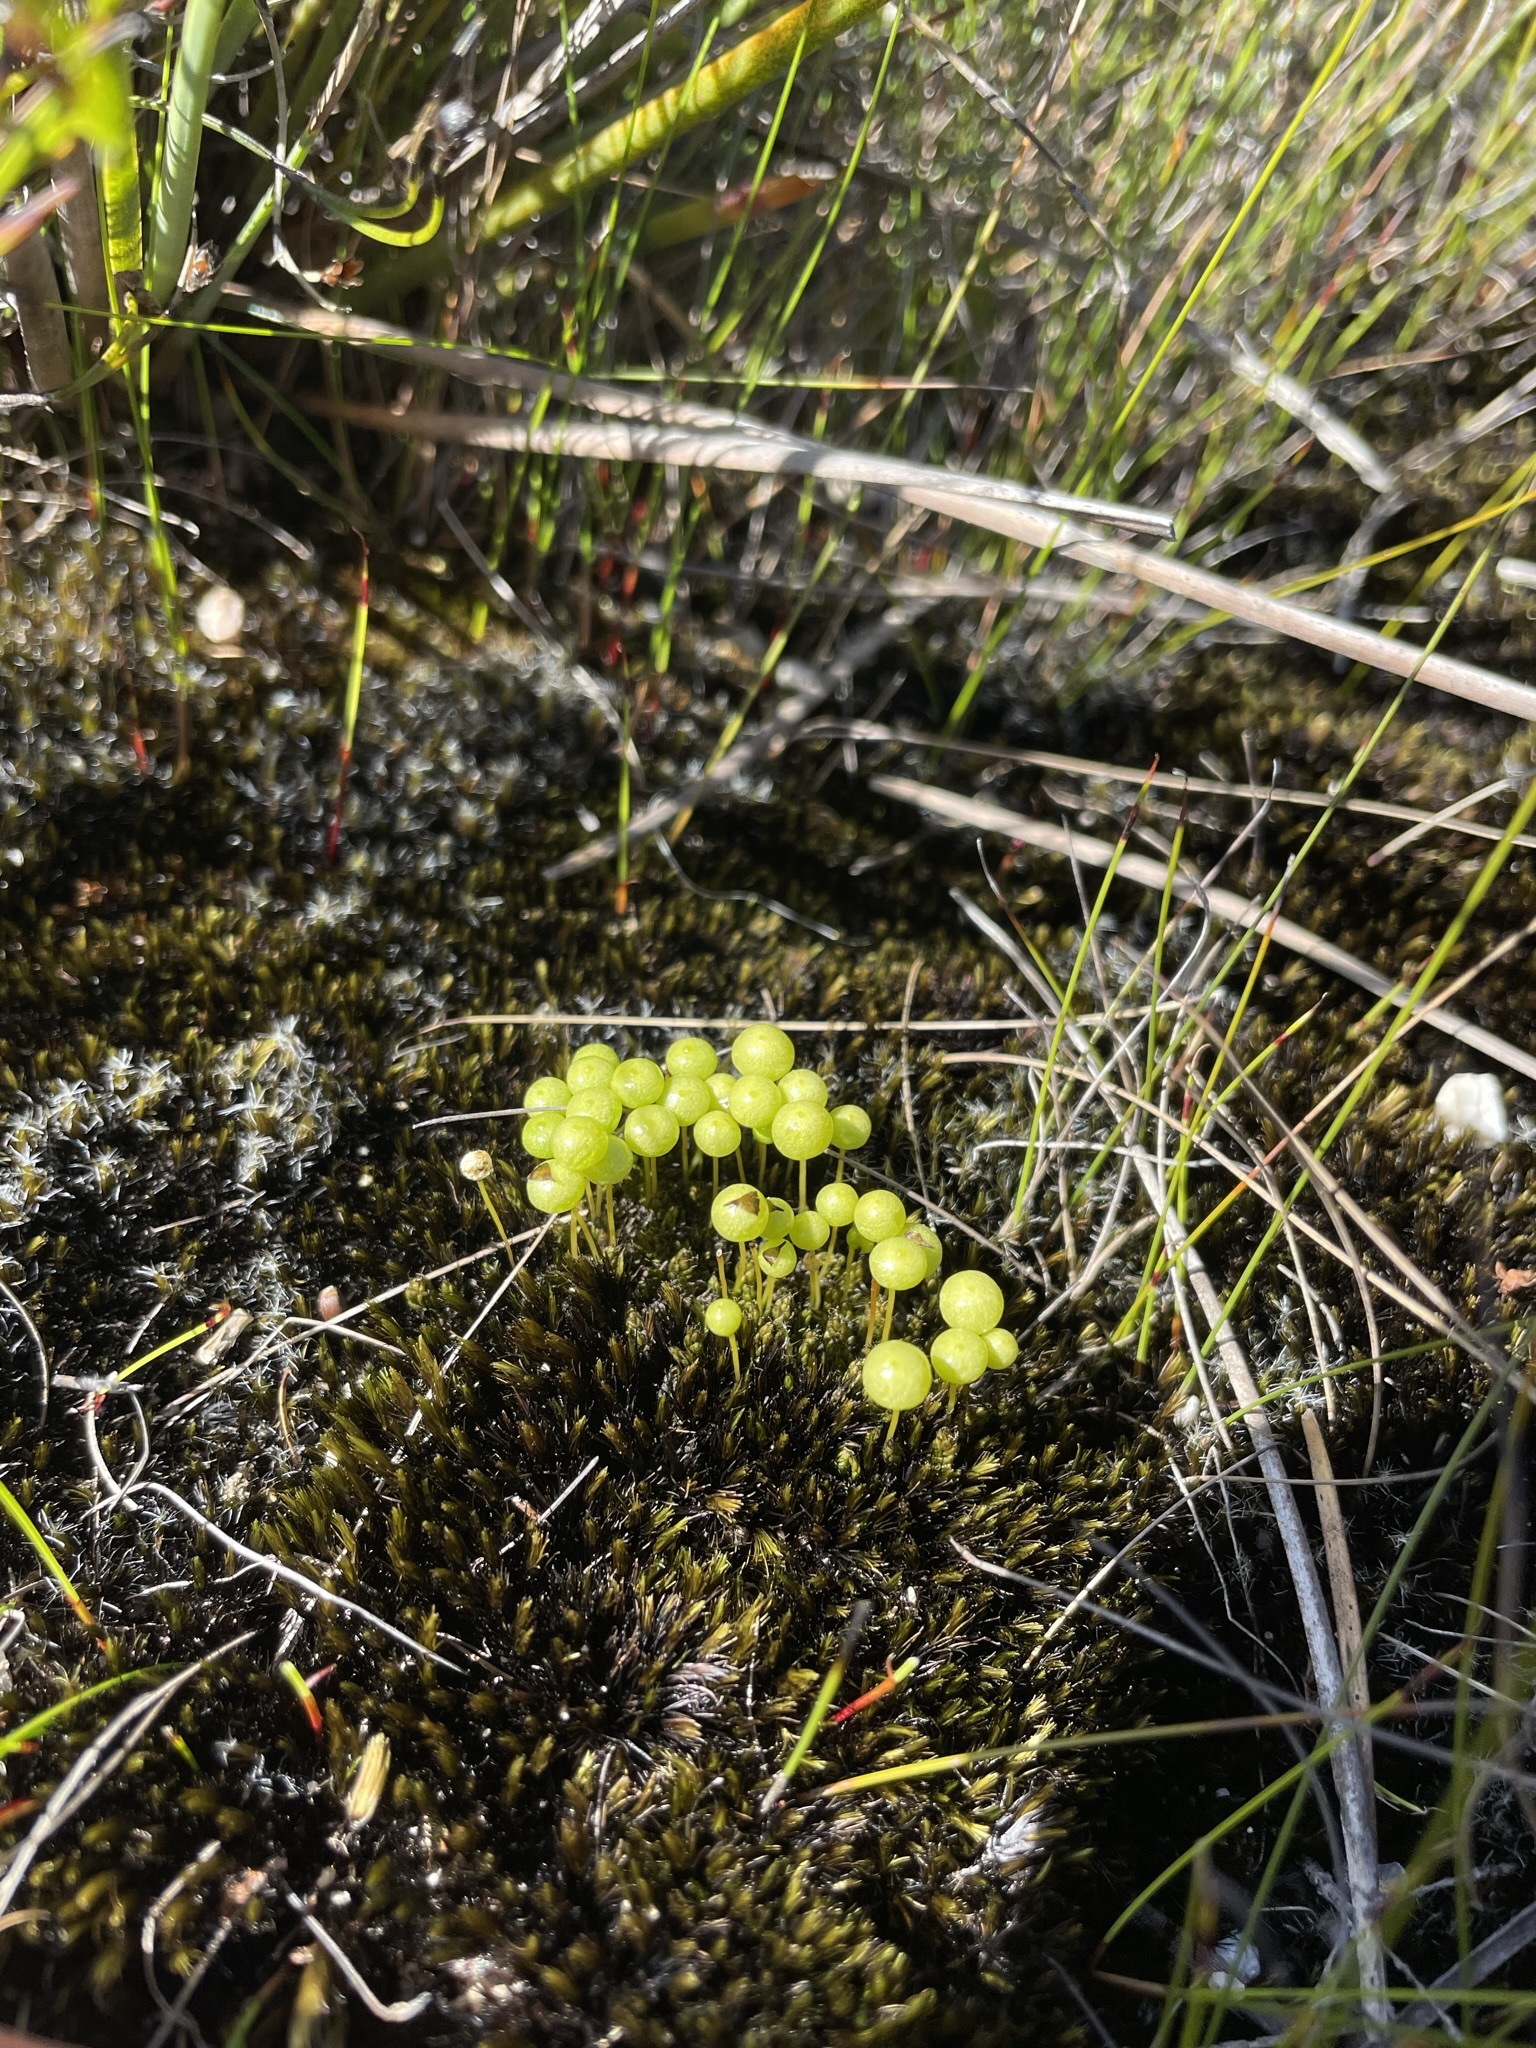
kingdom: Plantae
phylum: Bryophyta
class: Bryopsida
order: Pottiales
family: Pleurophascaceae
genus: Pleurophascum
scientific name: Pleurophascum grandiglobum
